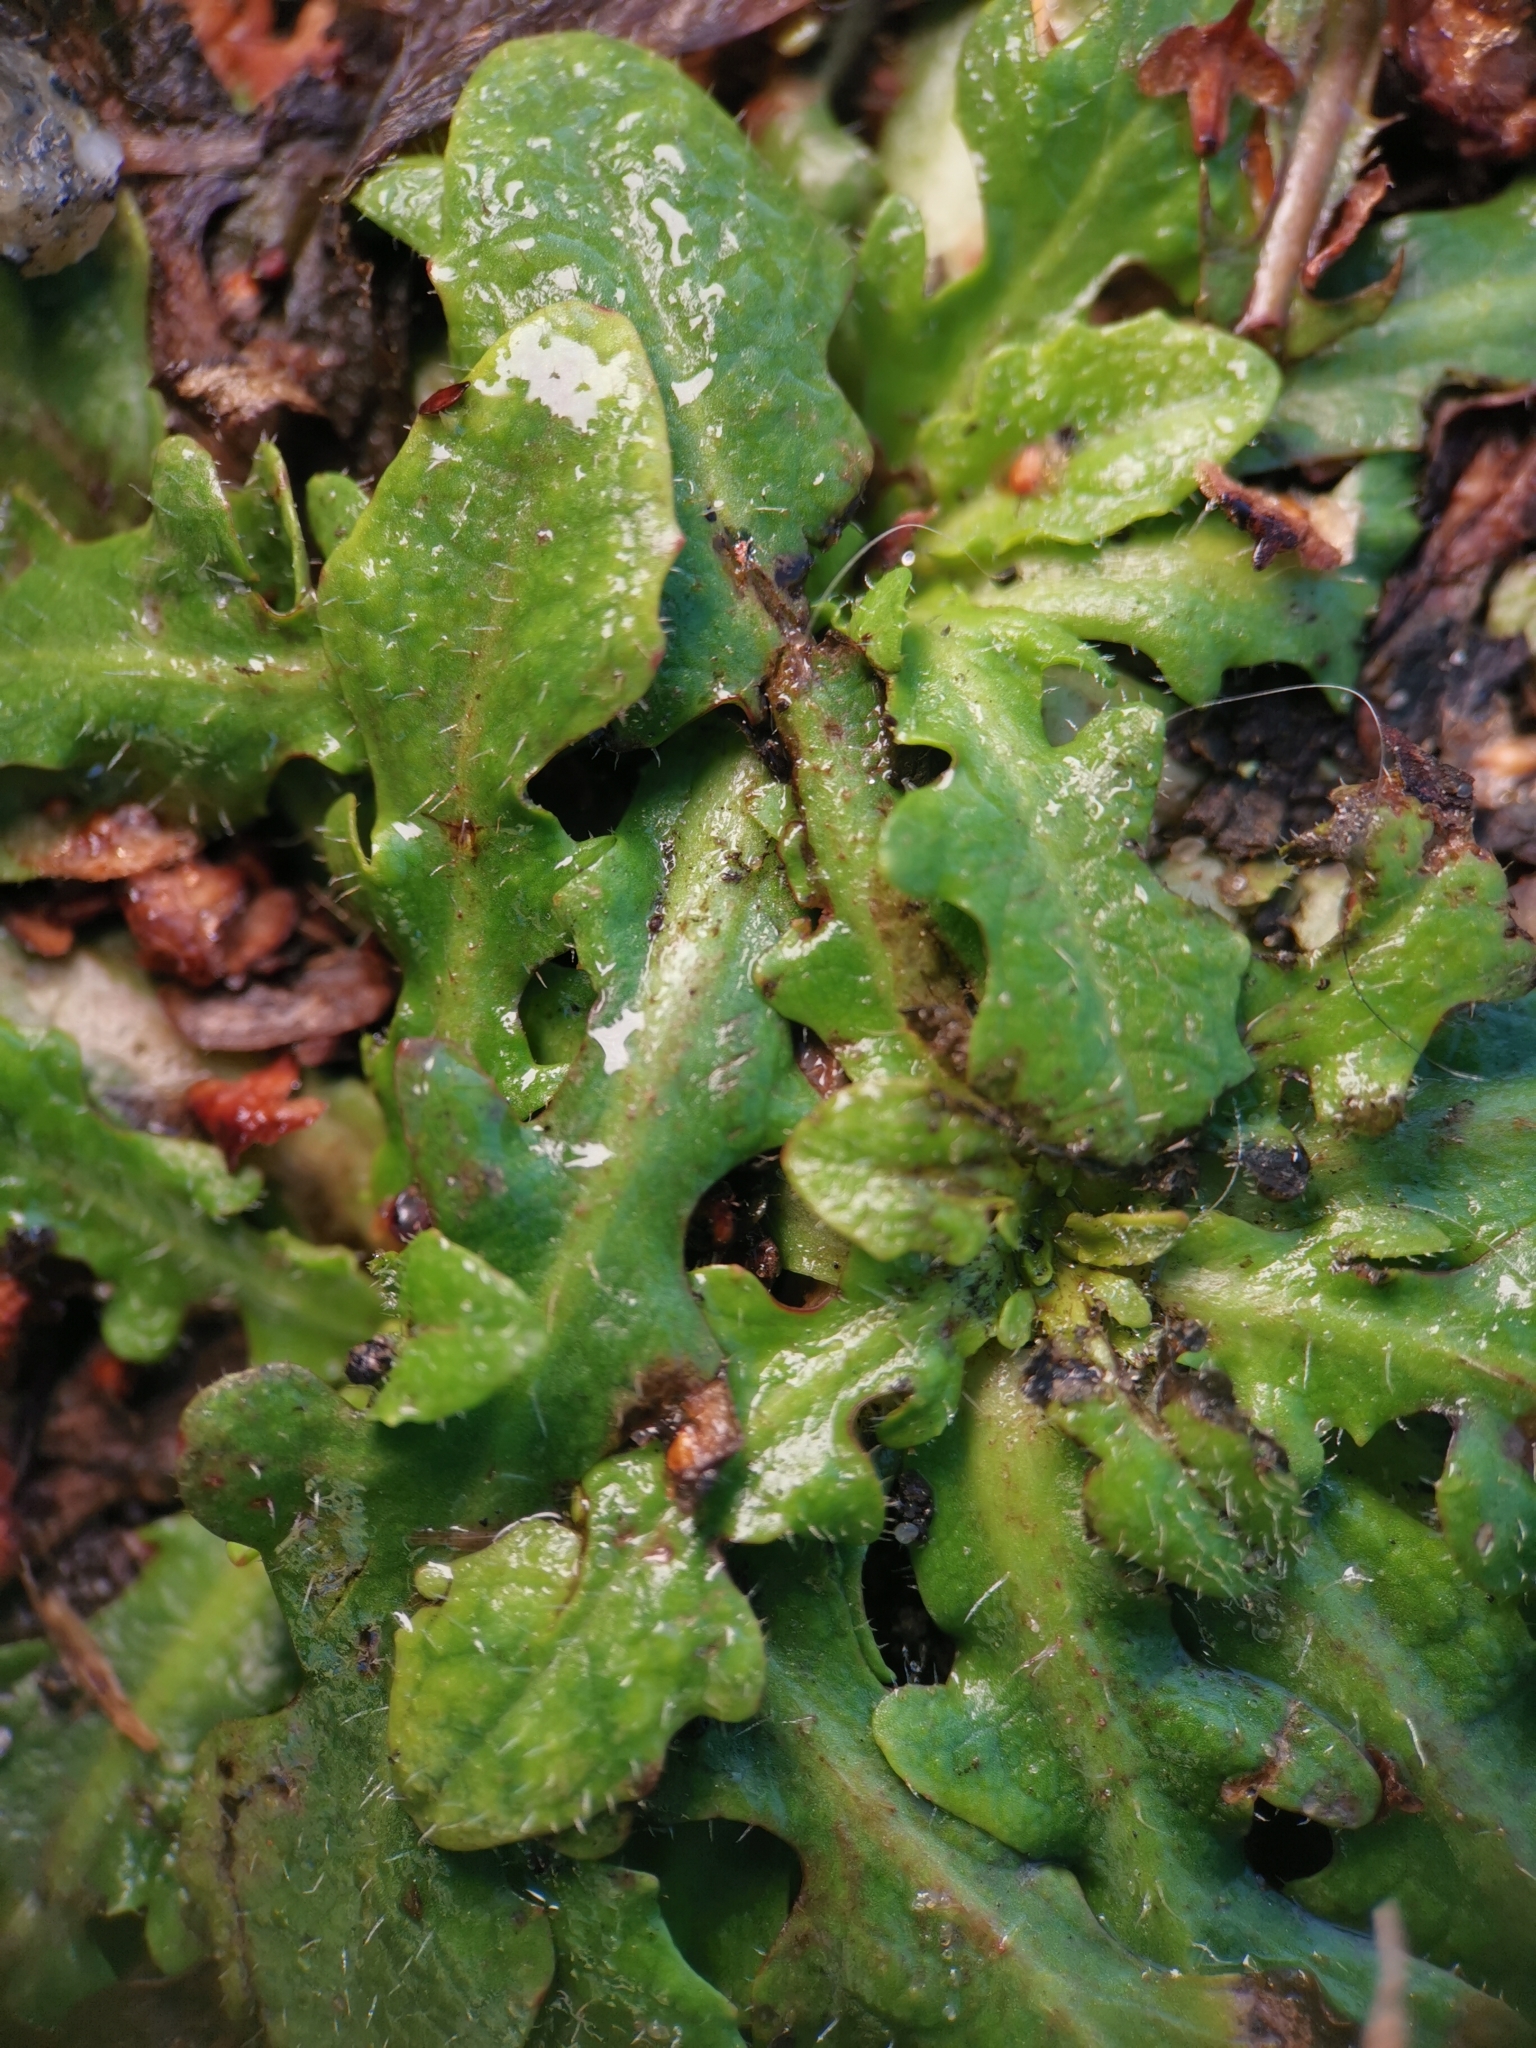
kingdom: Plantae
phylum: Tracheophyta
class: Magnoliopsida
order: Asterales
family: Asteraceae
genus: Hypochaeris
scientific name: Hypochaeris radicata
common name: Flatweed
